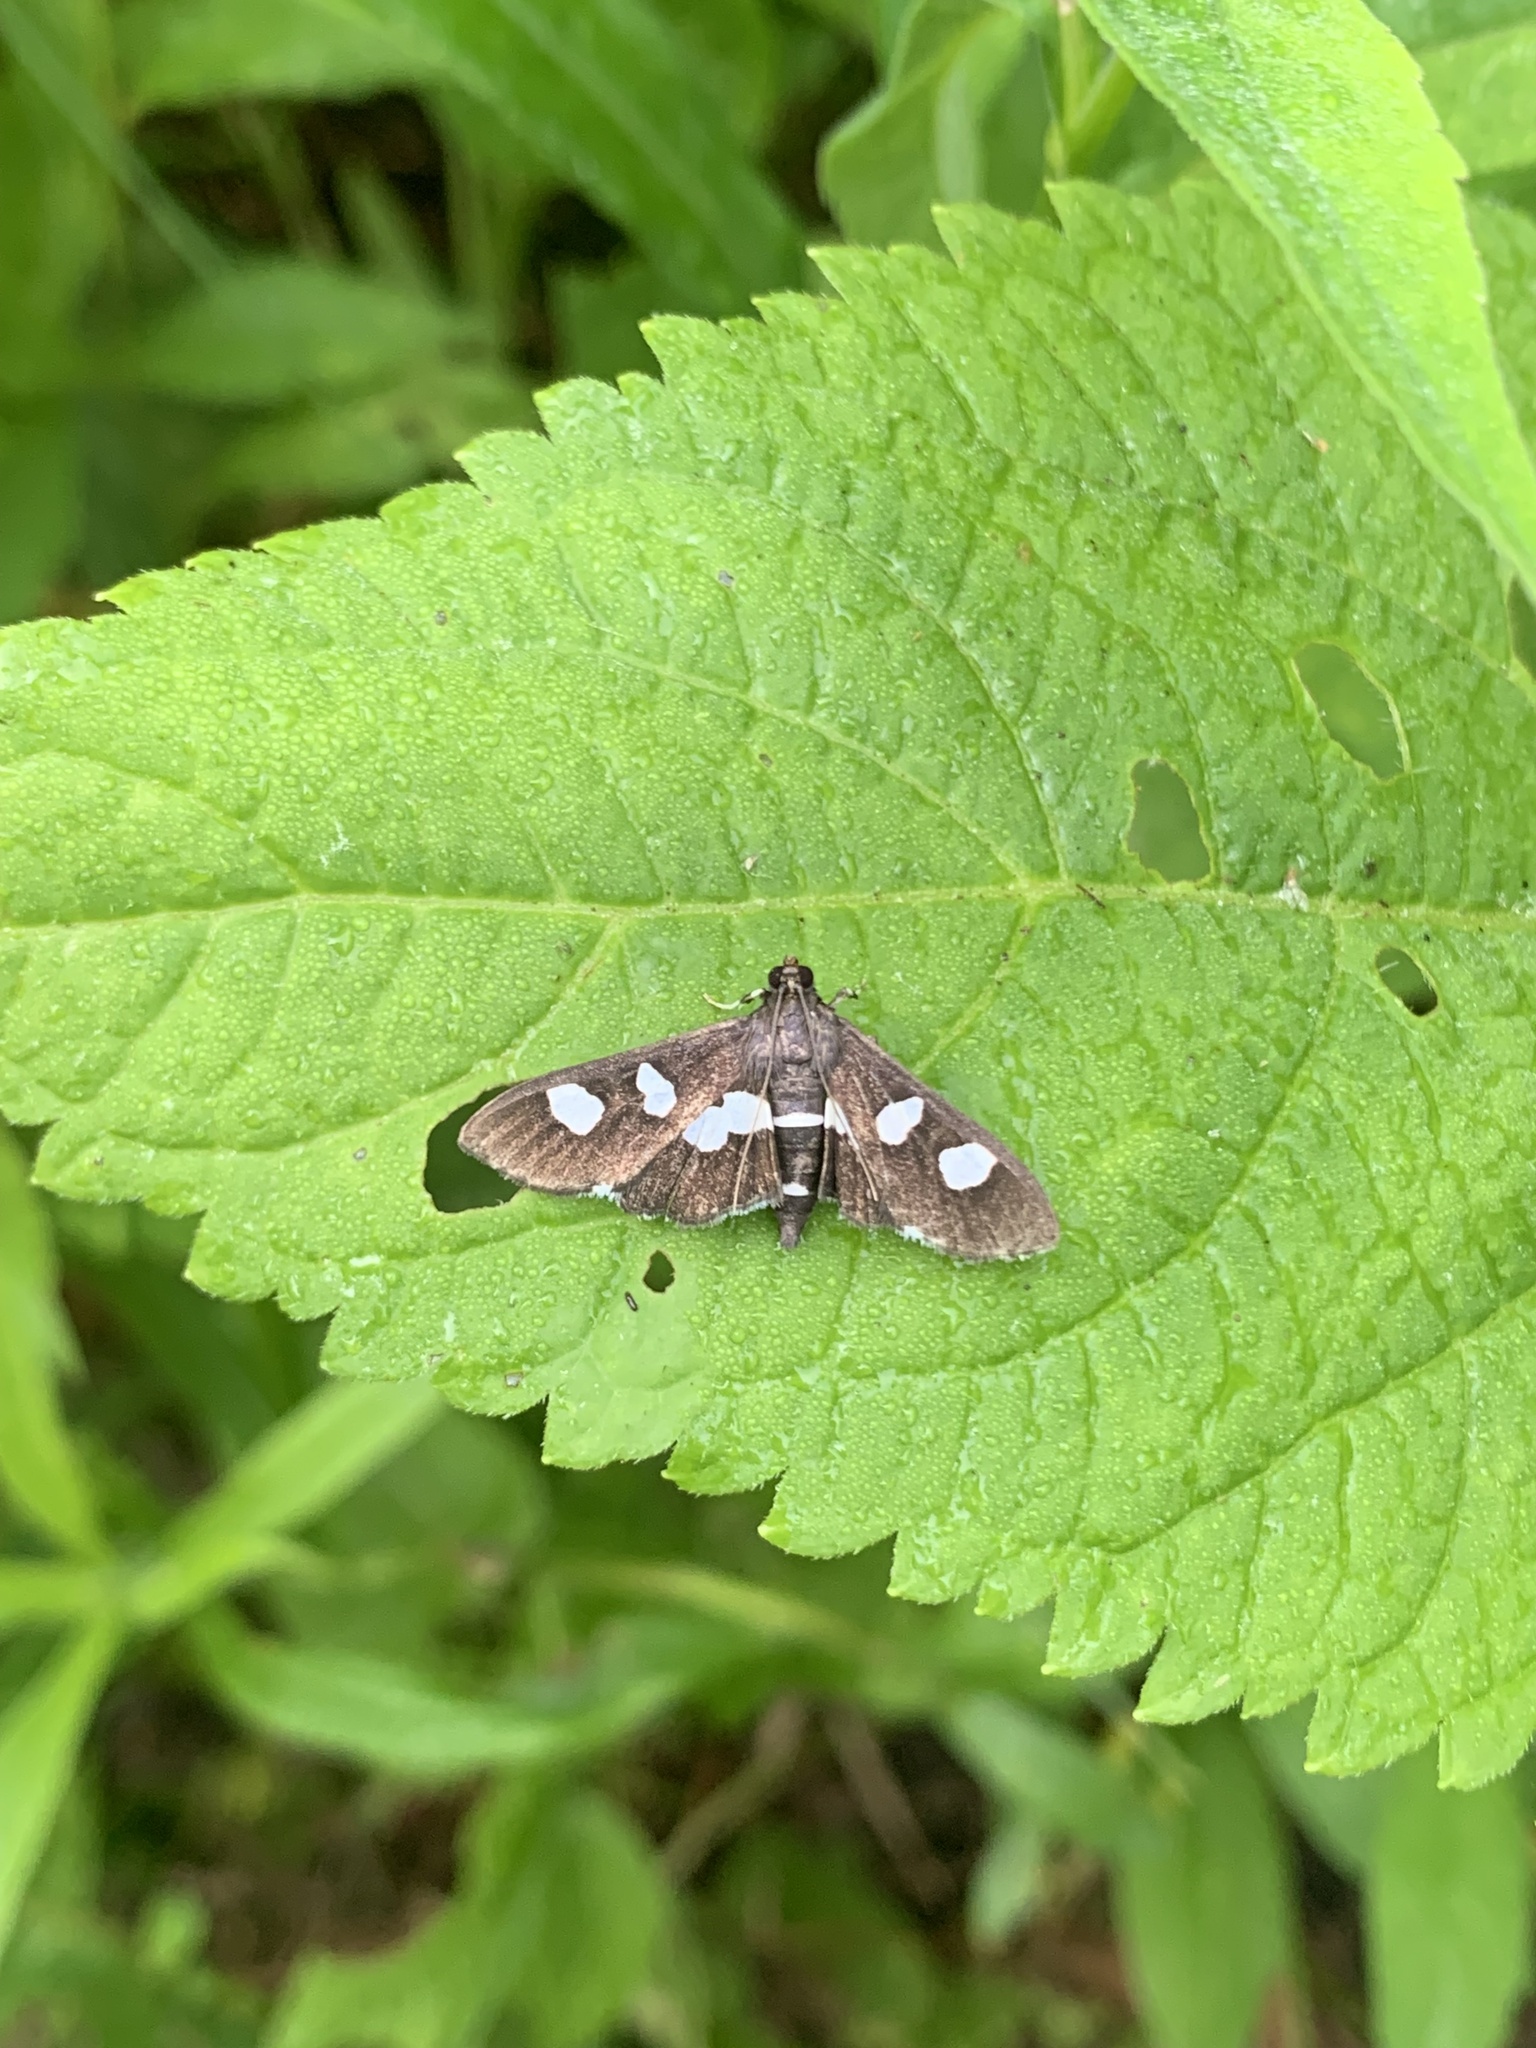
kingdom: Animalia
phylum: Arthropoda
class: Insecta
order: Lepidoptera
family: Crambidae
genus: Desmia
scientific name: Desmia
